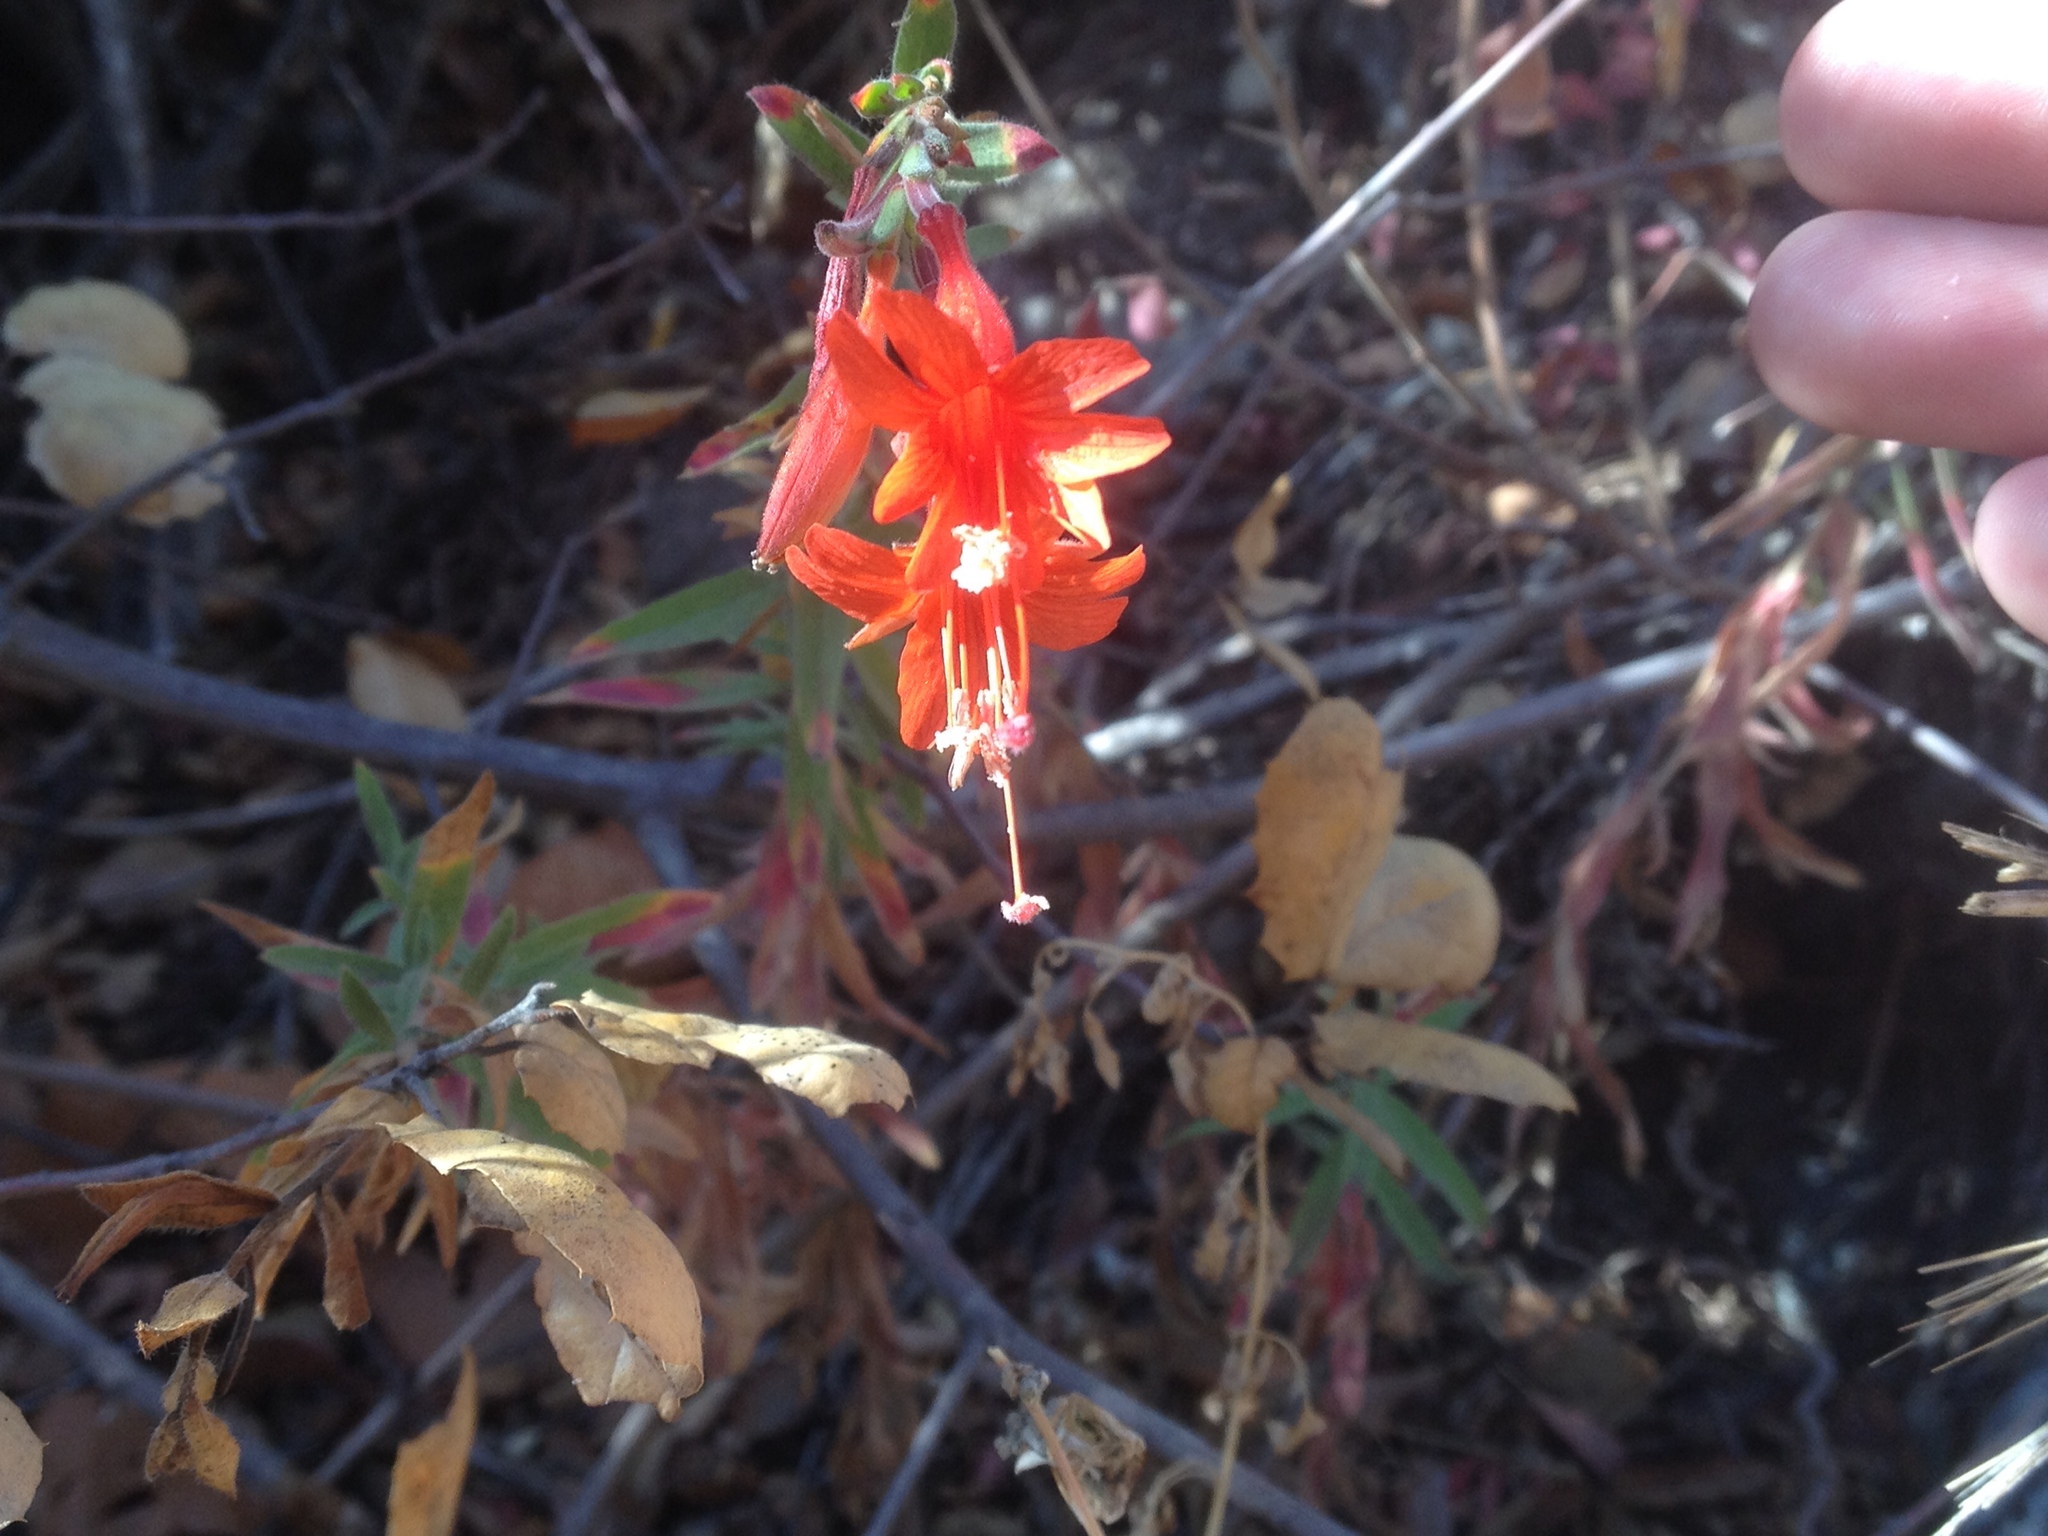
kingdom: Plantae
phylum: Tracheophyta
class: Magnoliopsida
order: Myrtales
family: Onagraceae
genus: Epilobium
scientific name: Epilobium canum
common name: California-fuchsia
